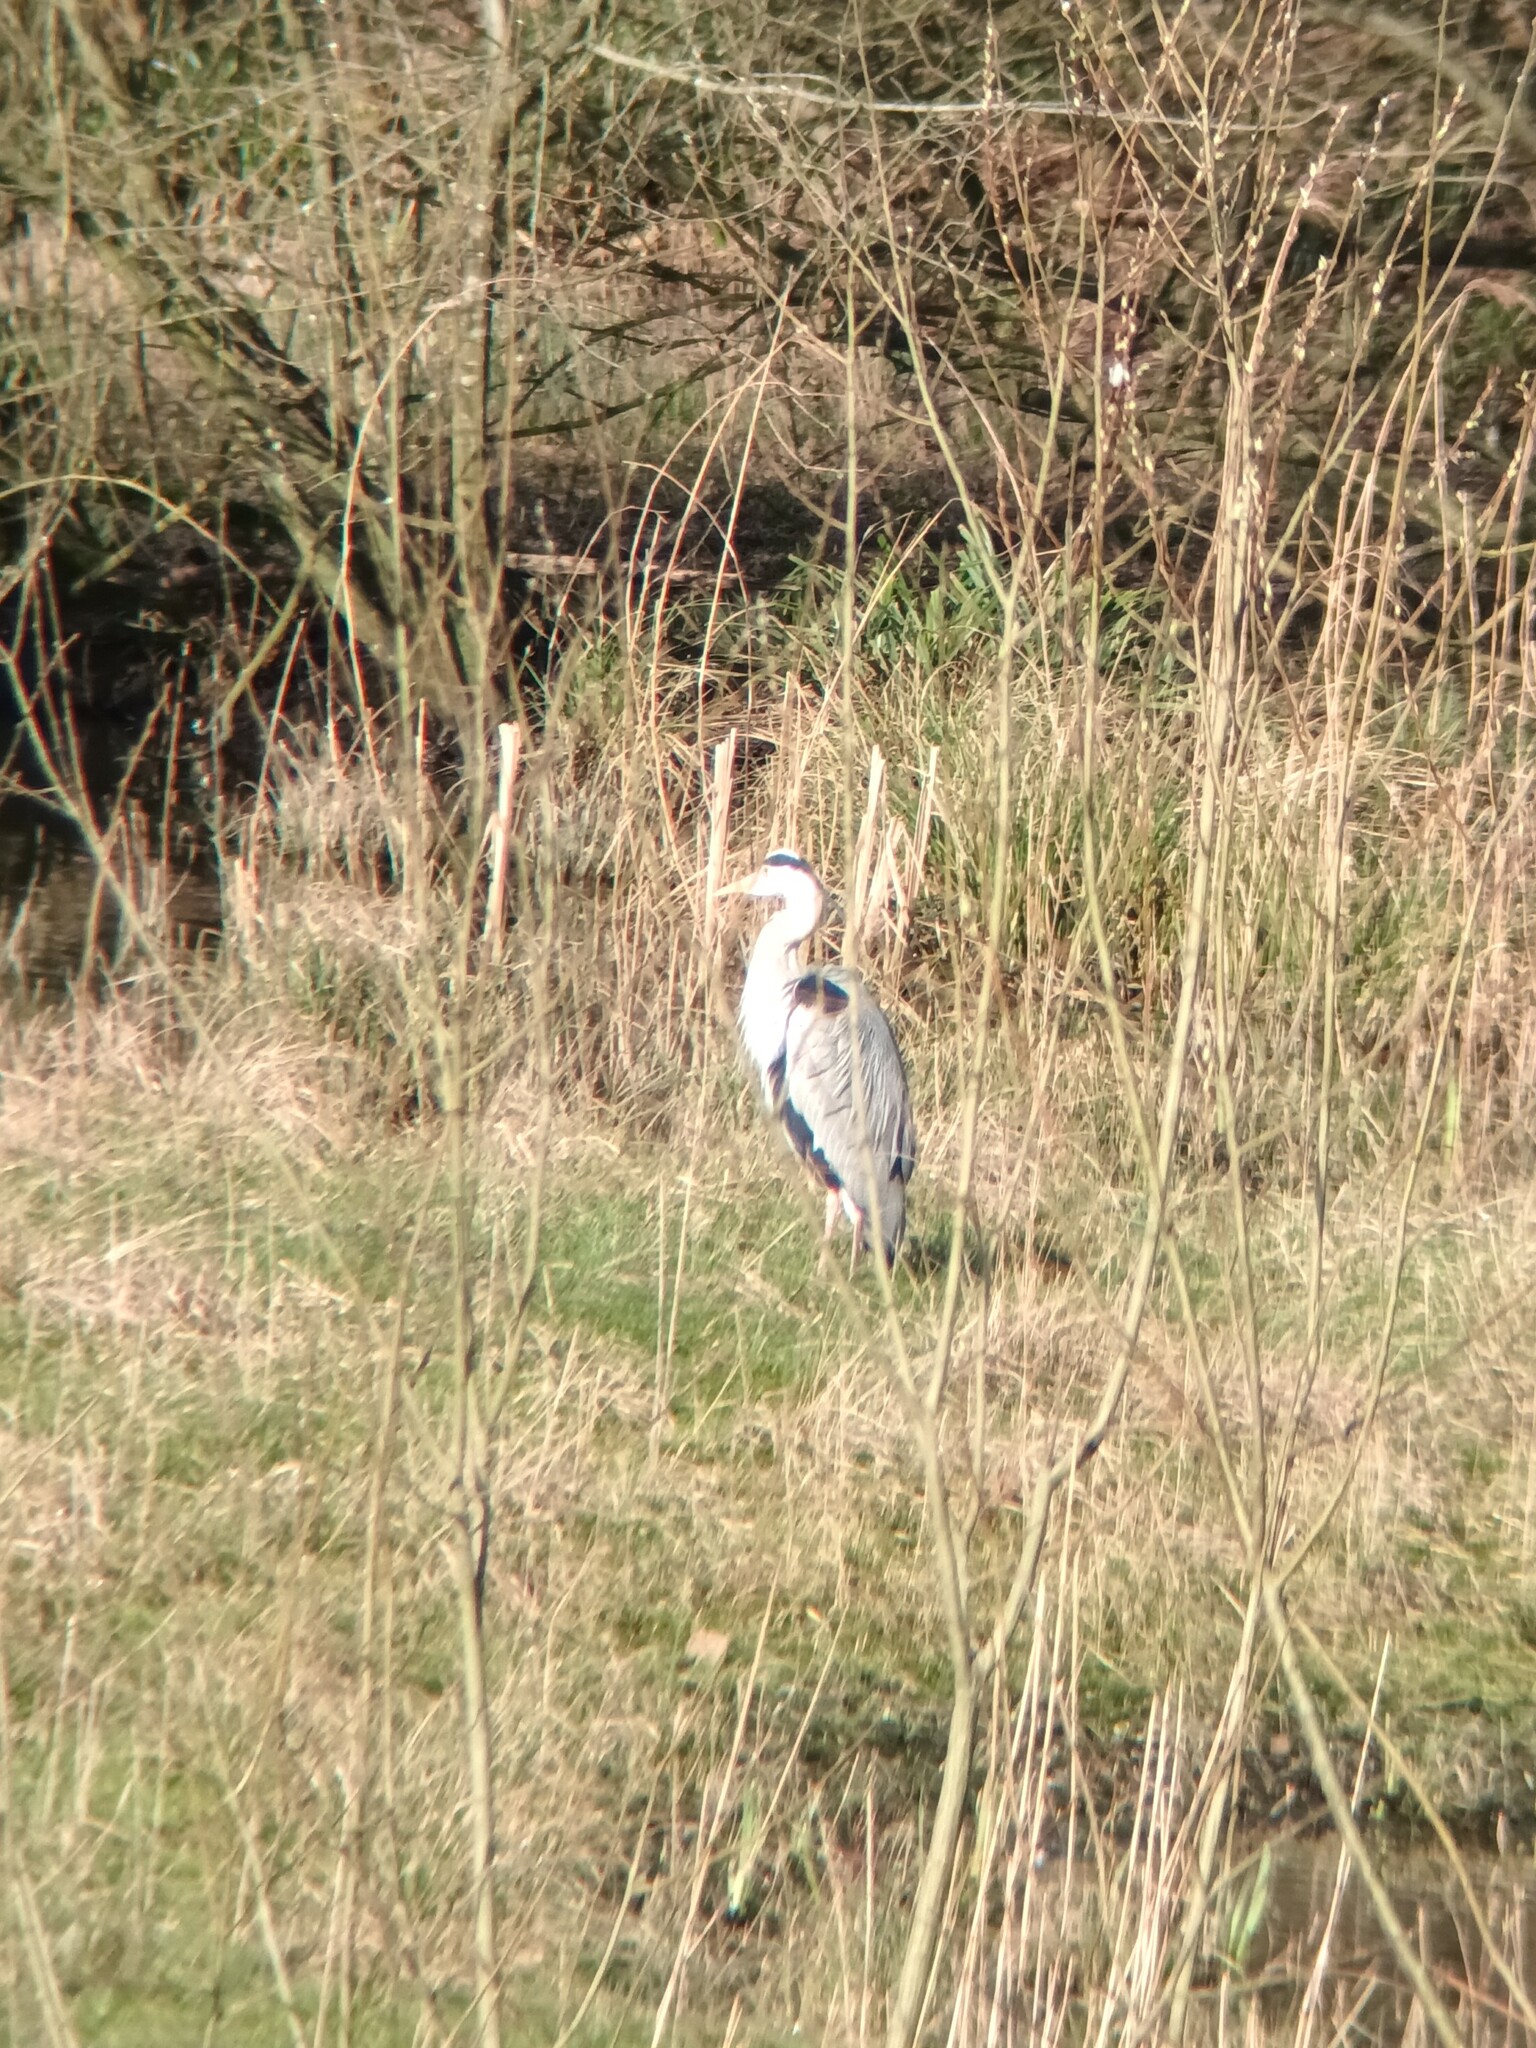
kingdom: Animalia
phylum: Chordata
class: Aves
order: Pelecaniformes
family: Ardeidae
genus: Ardea
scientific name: Ardea cinerea
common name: Grey heron
